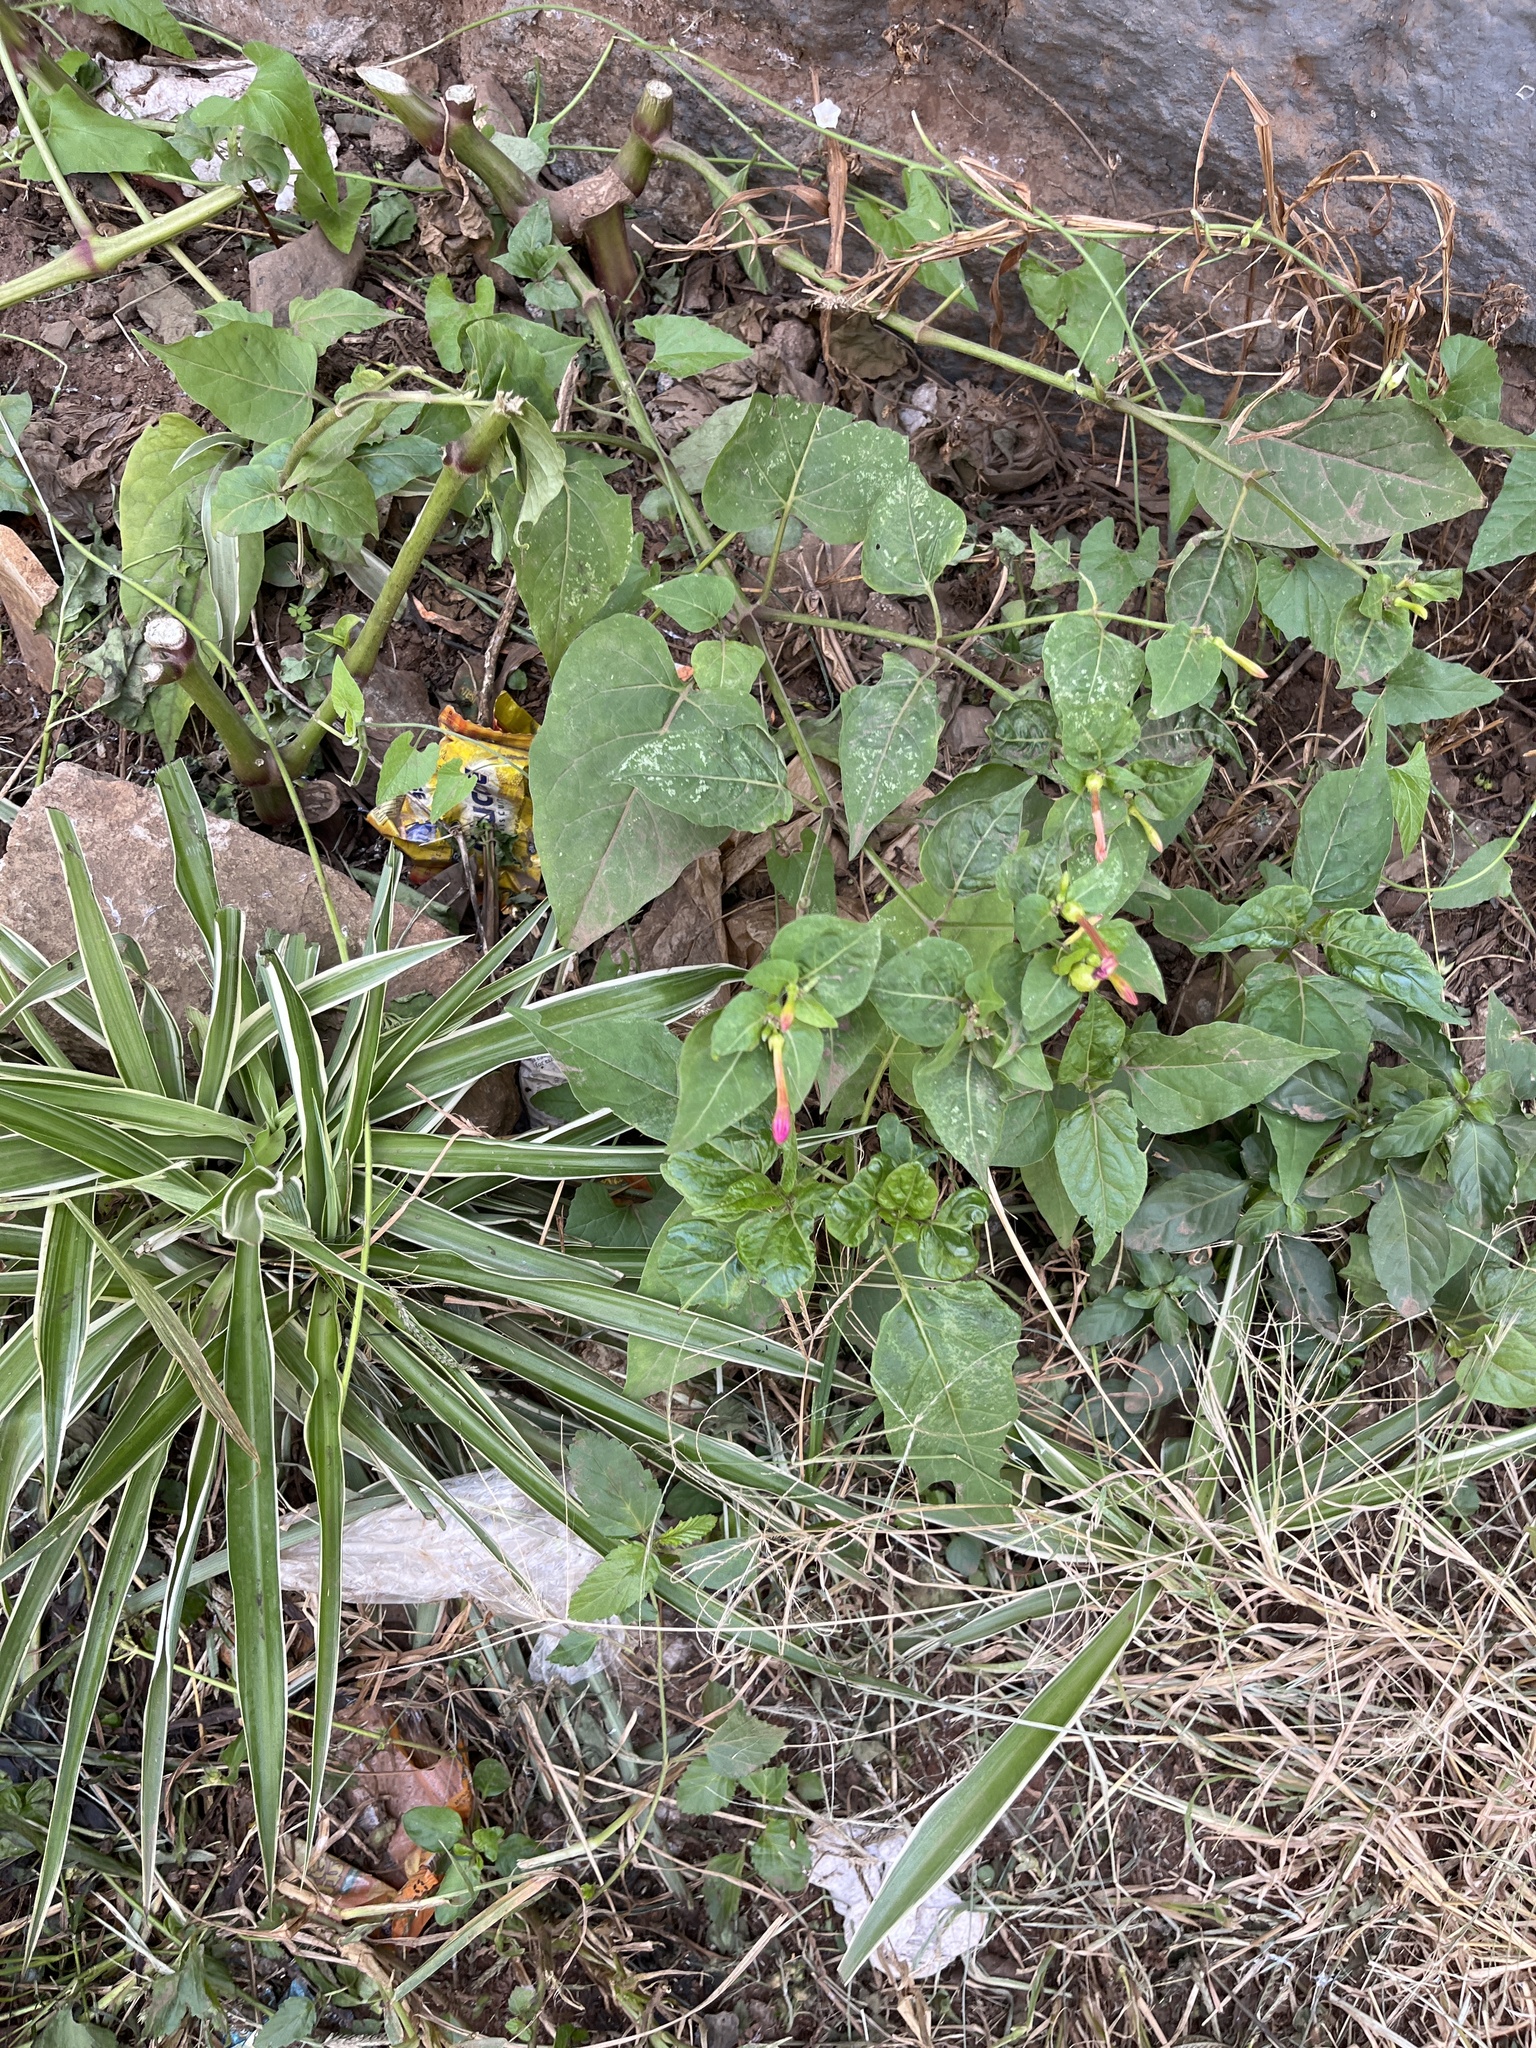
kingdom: Plantae
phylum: Tracheophyta
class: Magnoliopsida
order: Caryophyllales
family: Nyctaginaceae
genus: Mirabilis
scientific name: Mirabilis jalapa
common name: Marvel-of-peru
